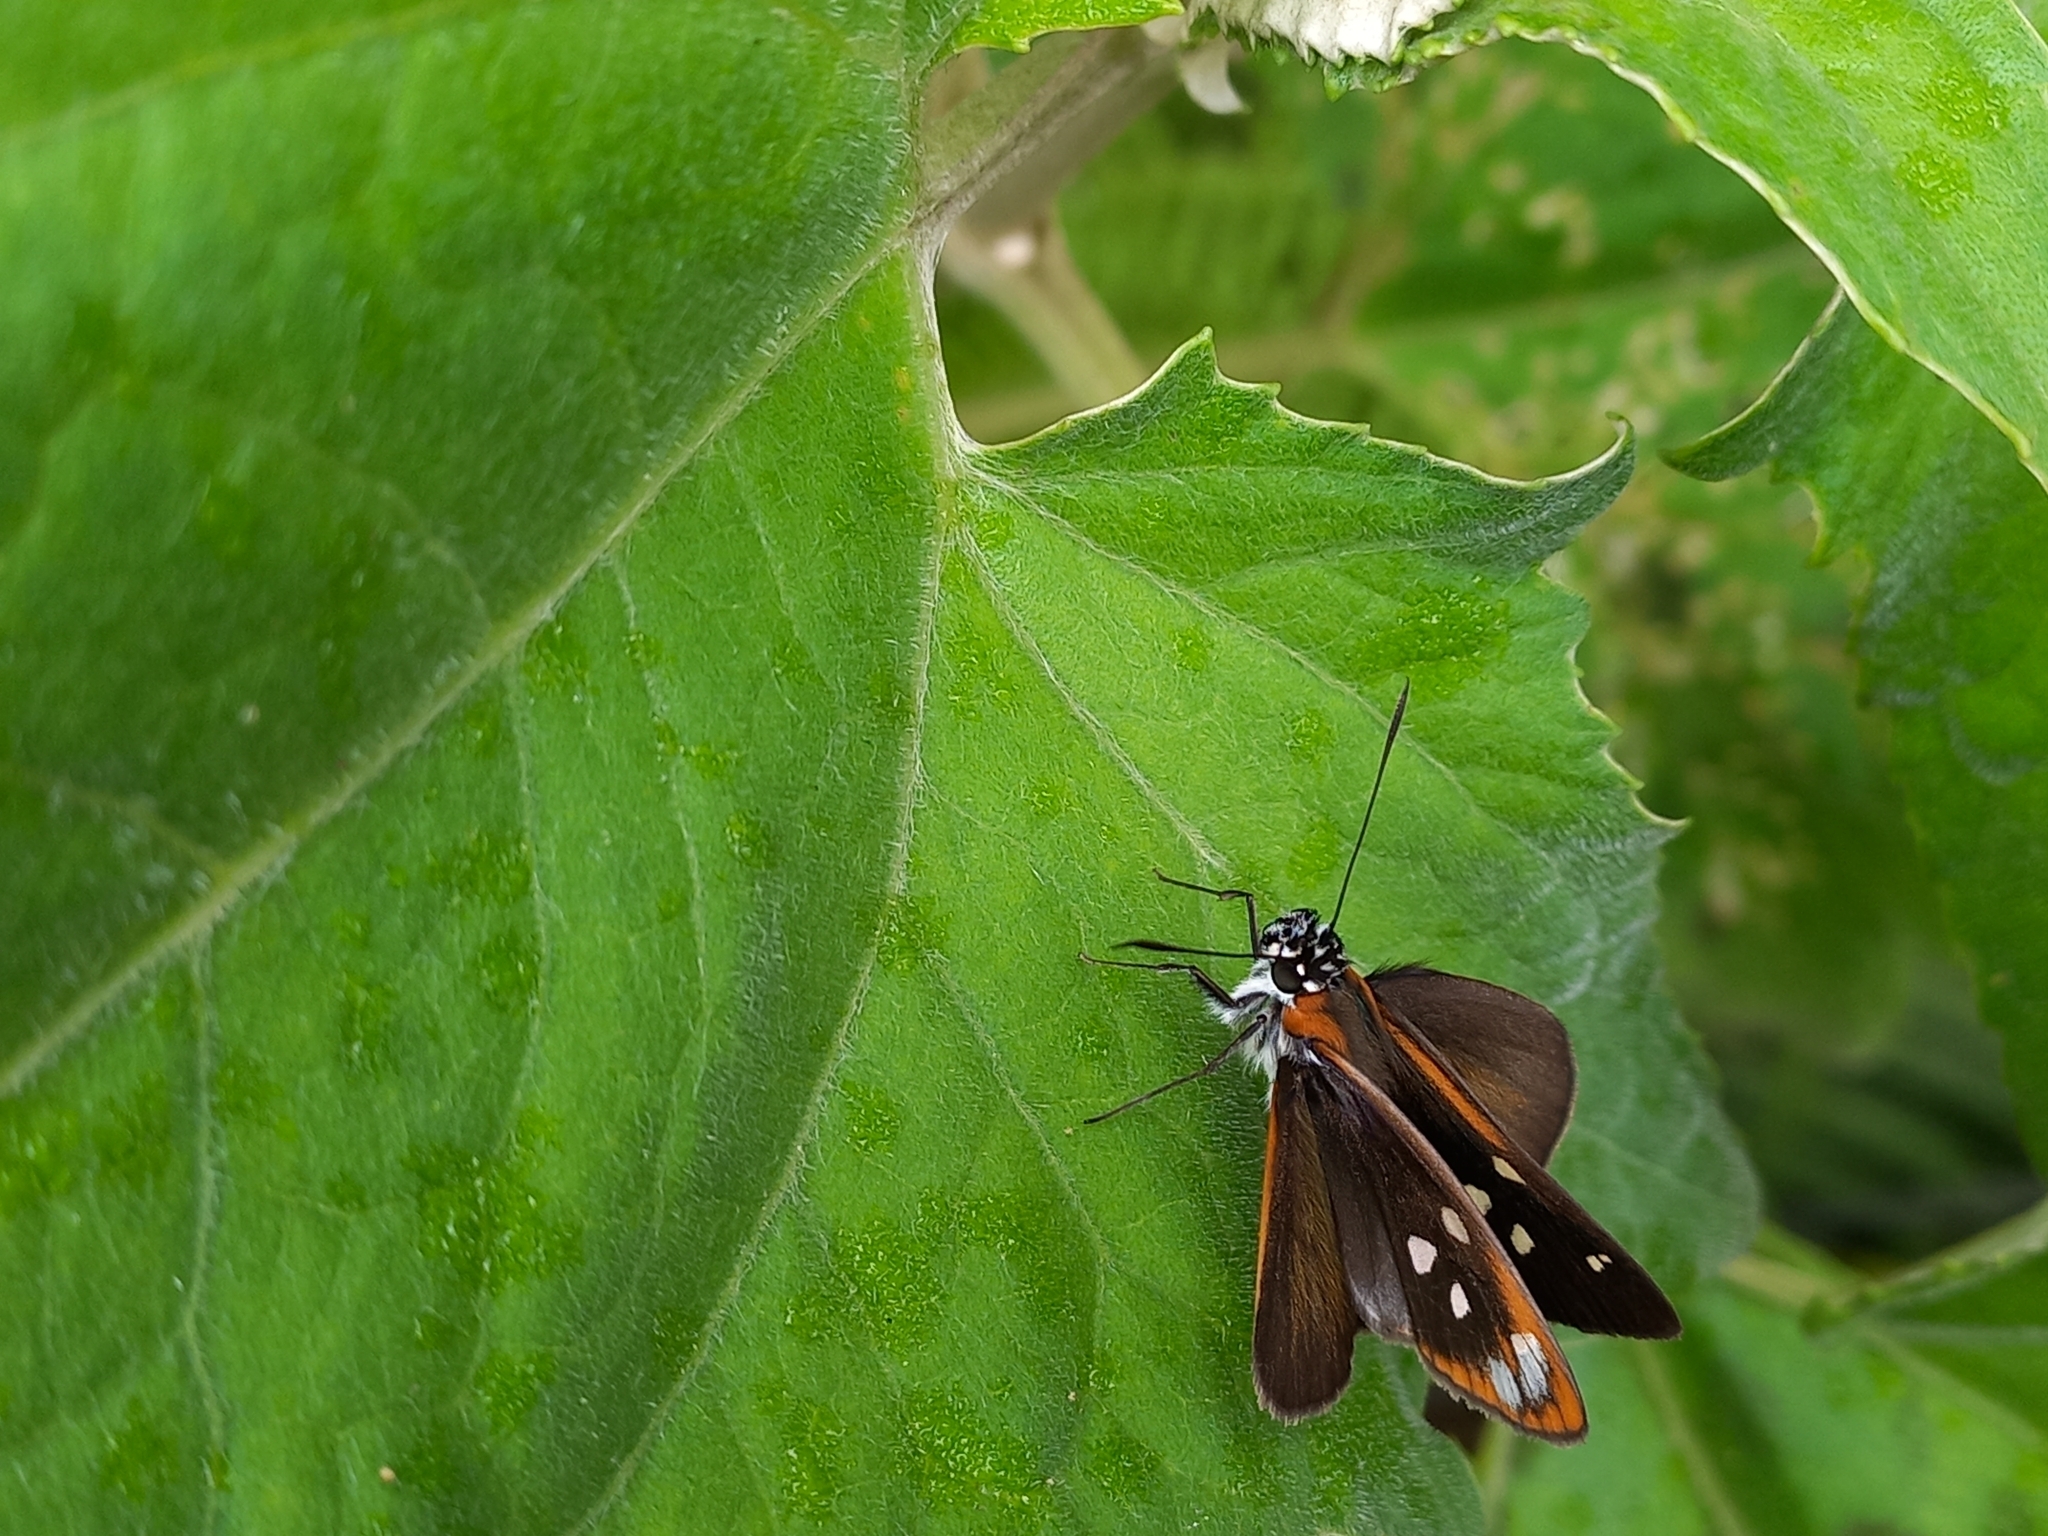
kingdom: Animalia
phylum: Arthropoda
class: Insecta
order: Lepidoptera
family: Hesperiidae
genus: Corra
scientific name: Corra
